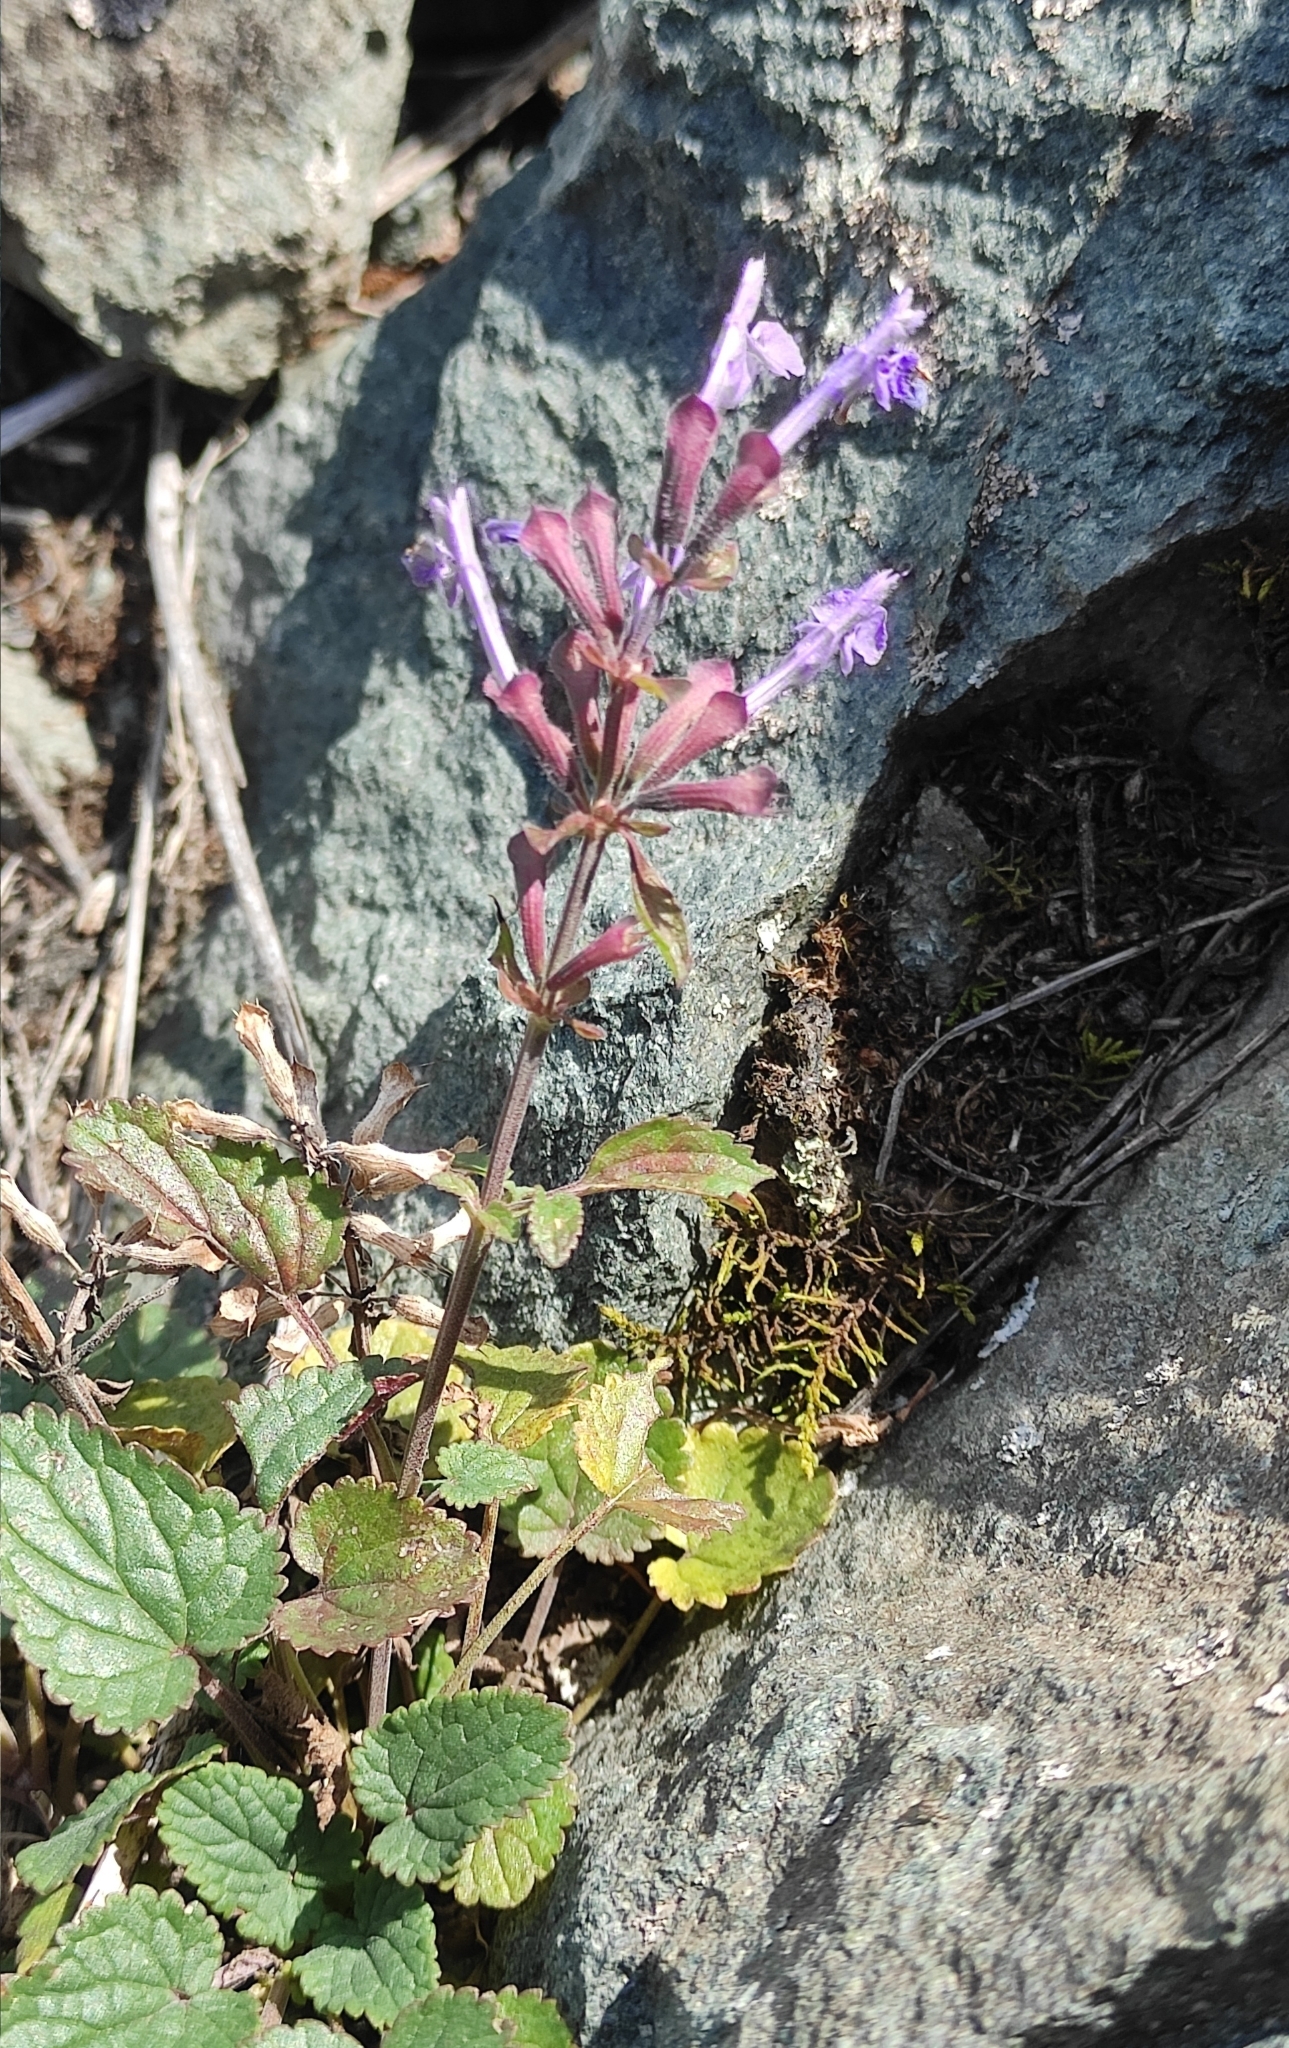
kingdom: Plantae
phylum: Tracheophyta
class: Magnoliopsida
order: Lamiales
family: Lamiaceae
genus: Dracocephalum
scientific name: Dracocephalum nutans
